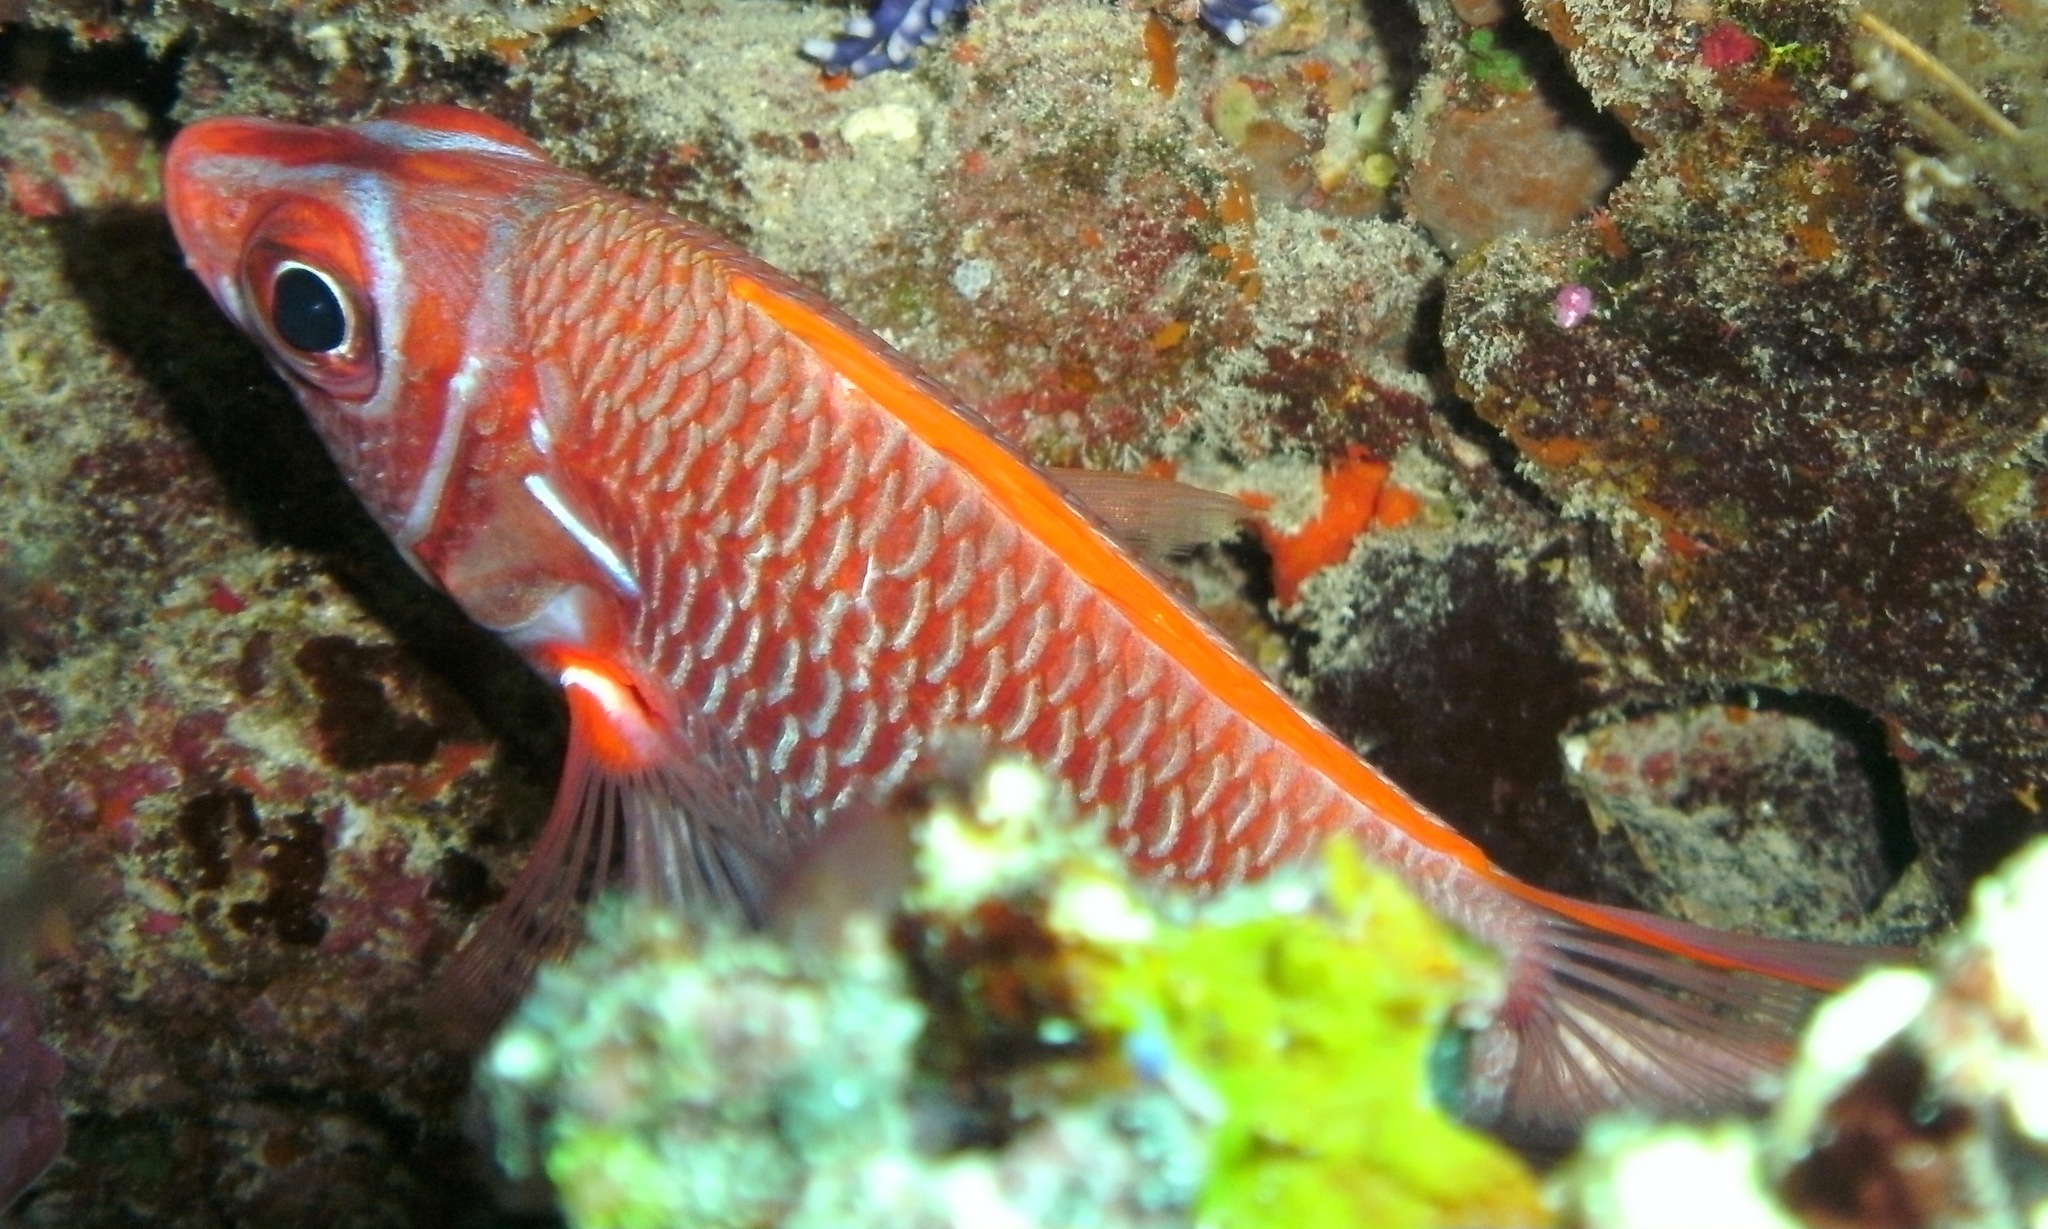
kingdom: Animalia
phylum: Chordata
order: Beryciformes
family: Holocentridae
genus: Sargocentron
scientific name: Sargocentron caudimaculatum
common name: Fanfin soldier
